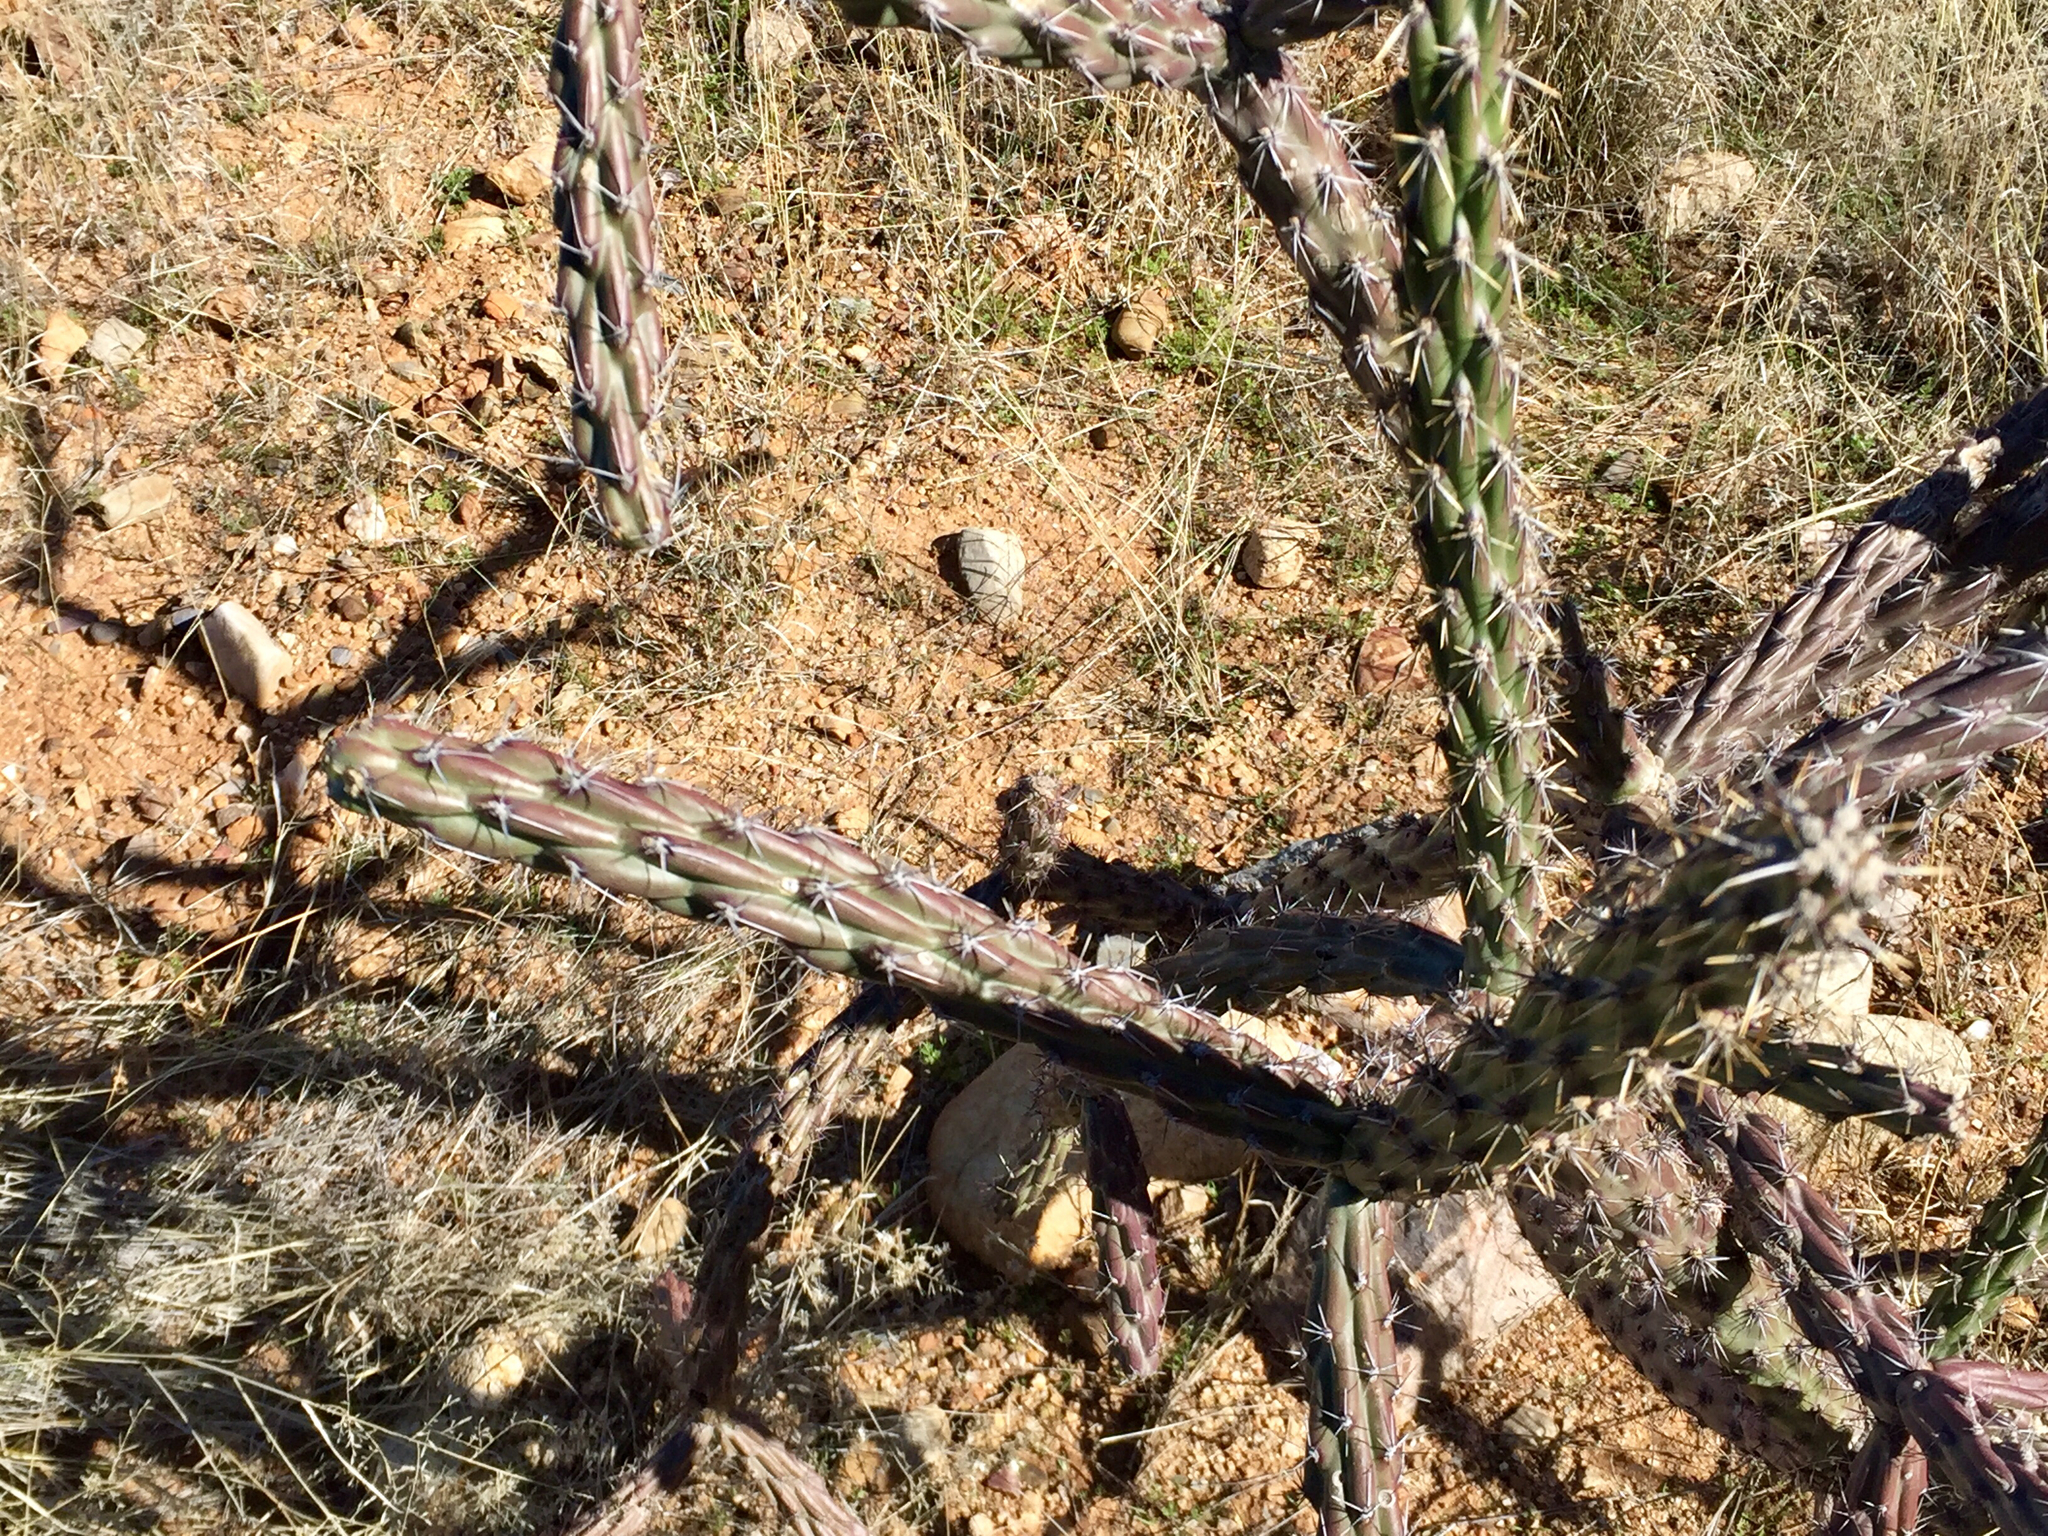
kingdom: Plantae
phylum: Tracheophyta
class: Magnoliopsida
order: Caryophyllales
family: Cactaceae
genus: Cylindropuntia
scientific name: Cylindropuntia acanthocarpa
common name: Buckhorn cholla
